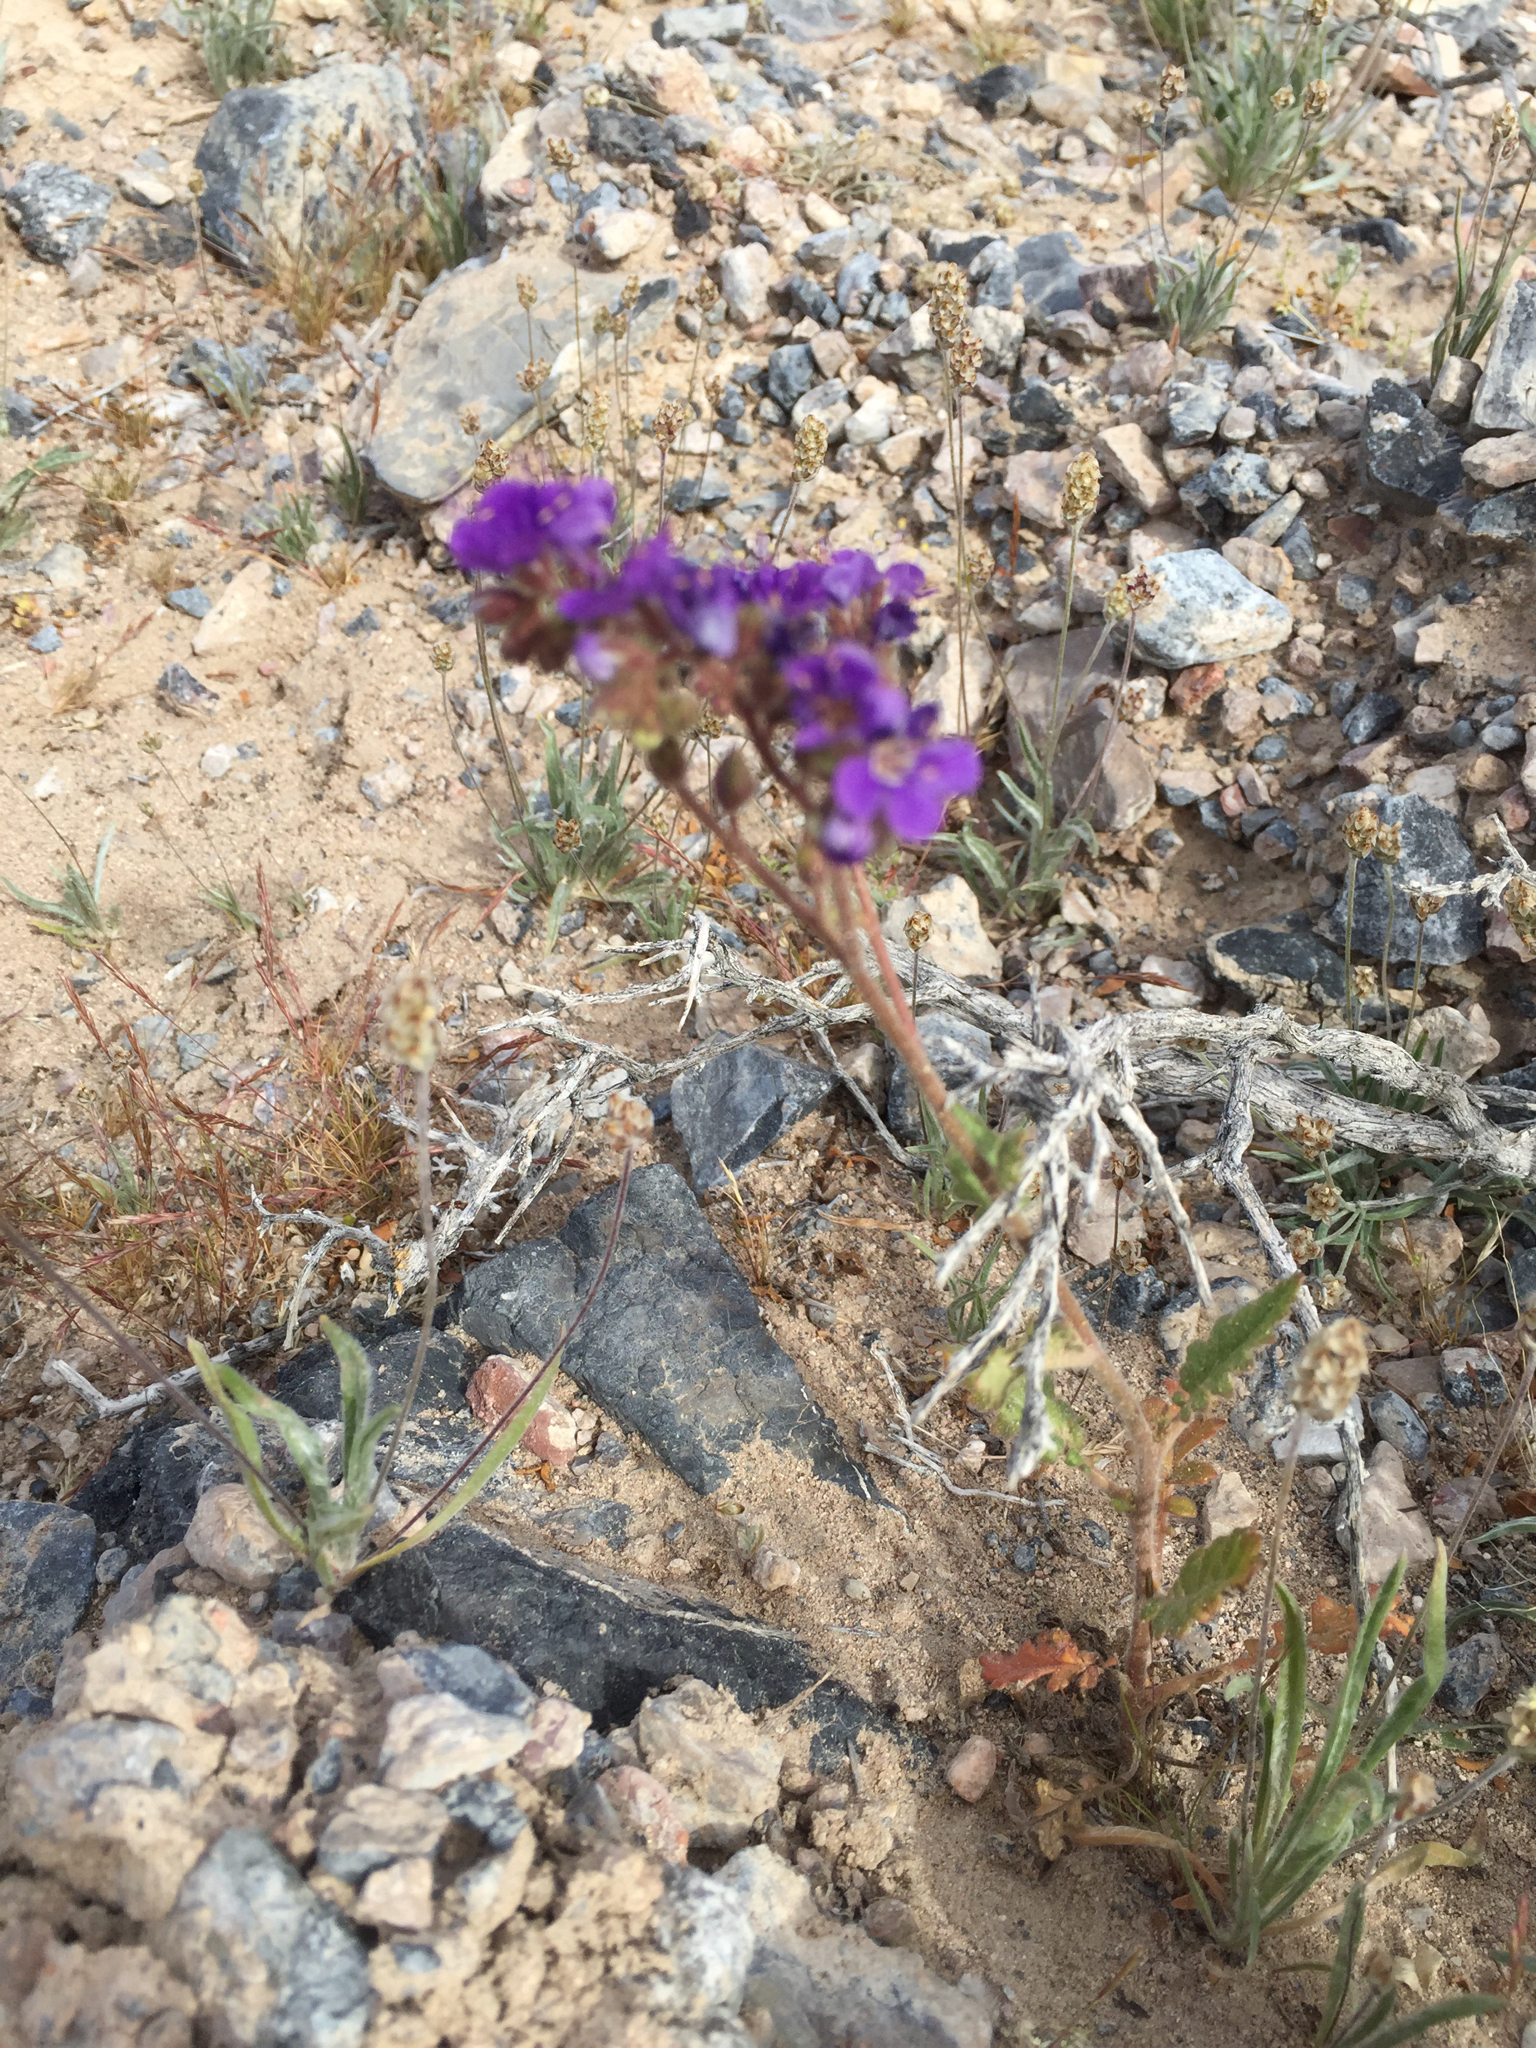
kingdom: Plantae
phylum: Tracheophyta
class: Magnoliopsida
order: Boraginales
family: Hydrophyllaceae
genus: Phacelia
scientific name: Phacelia crenulata
